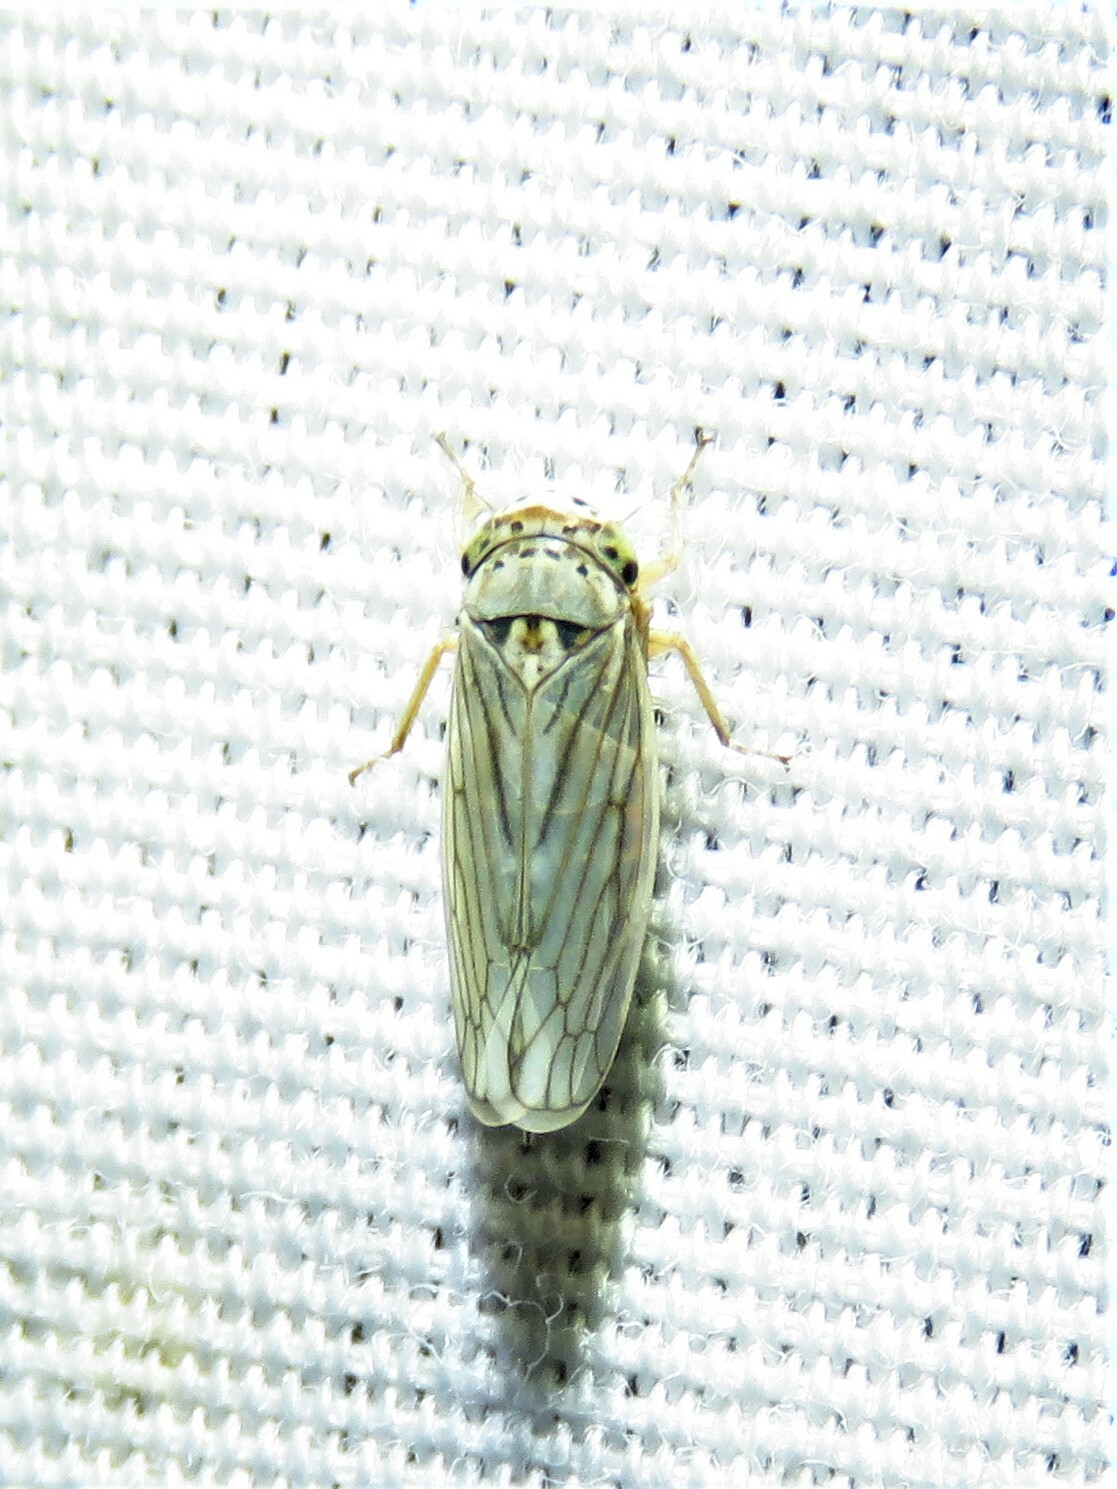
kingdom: Animalia
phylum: Arthropoda
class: Insecta
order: Hemiptera
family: Cicadellidae
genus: Exitianus
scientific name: Exitianus exitiosus
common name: Gray lawn leafhopper
